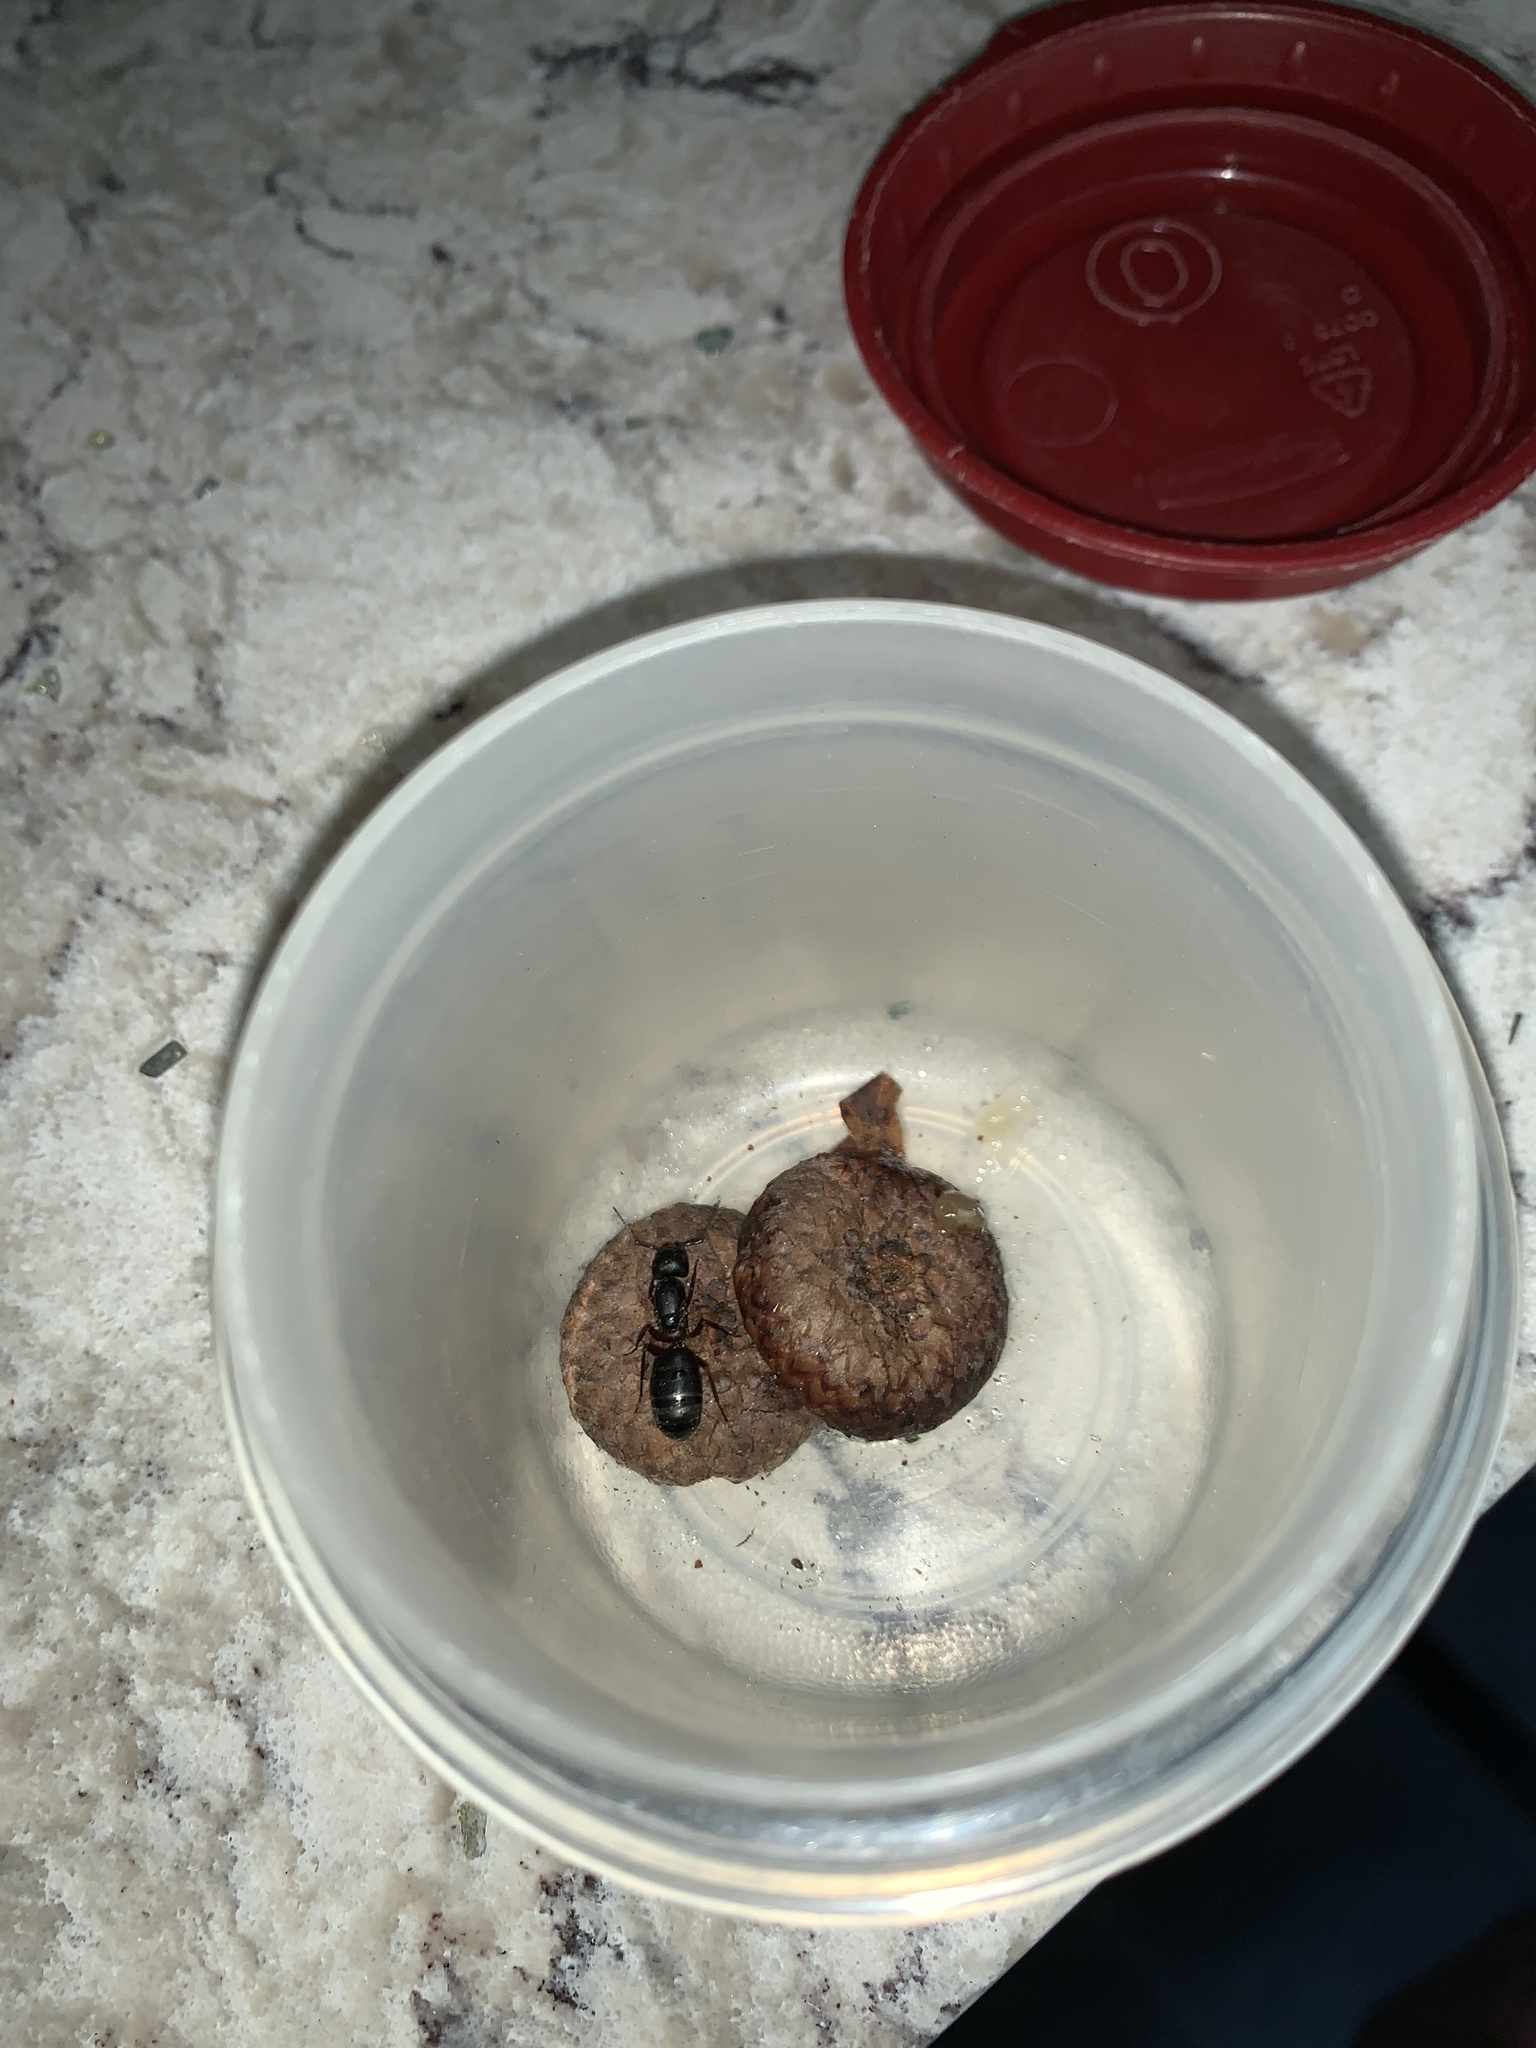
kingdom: Animalia
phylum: Arthropoda
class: Insecta
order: Hymenoptera
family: Formicidae
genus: Camponotus
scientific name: Camponotus pennsylvanicus
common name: Black carpenter ant
